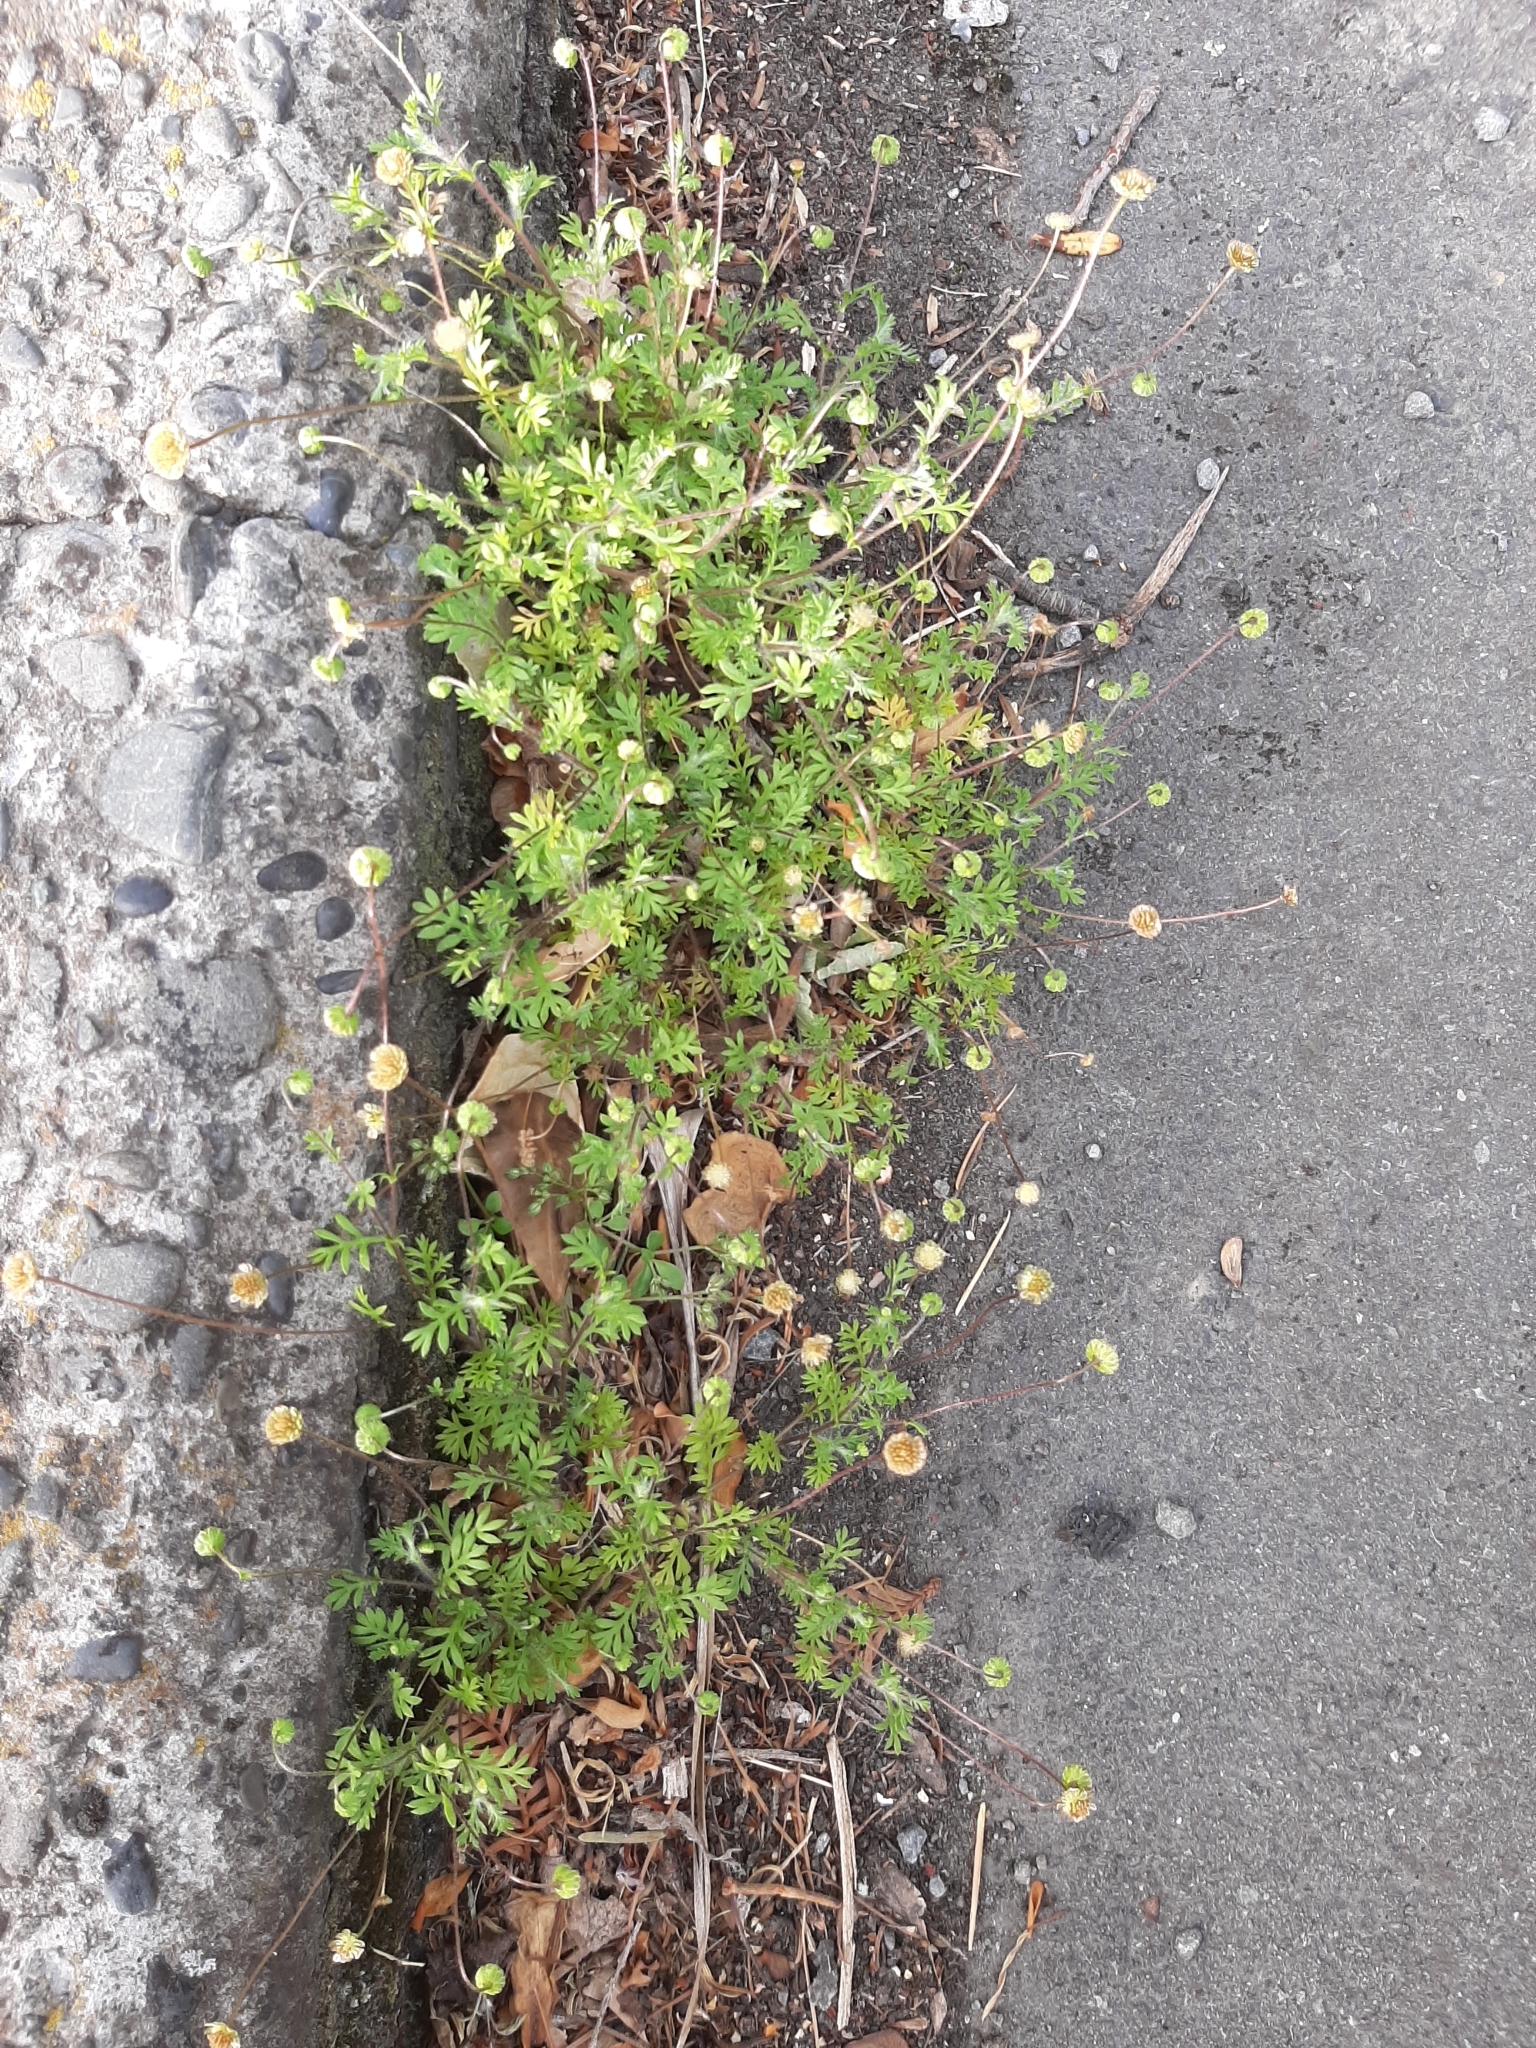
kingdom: Plantae
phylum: Tracheophyta
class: Magnoliopsida
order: Asterales
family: Asteraceae
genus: Cotula
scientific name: Cotula australis
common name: Australian waterbuttons
